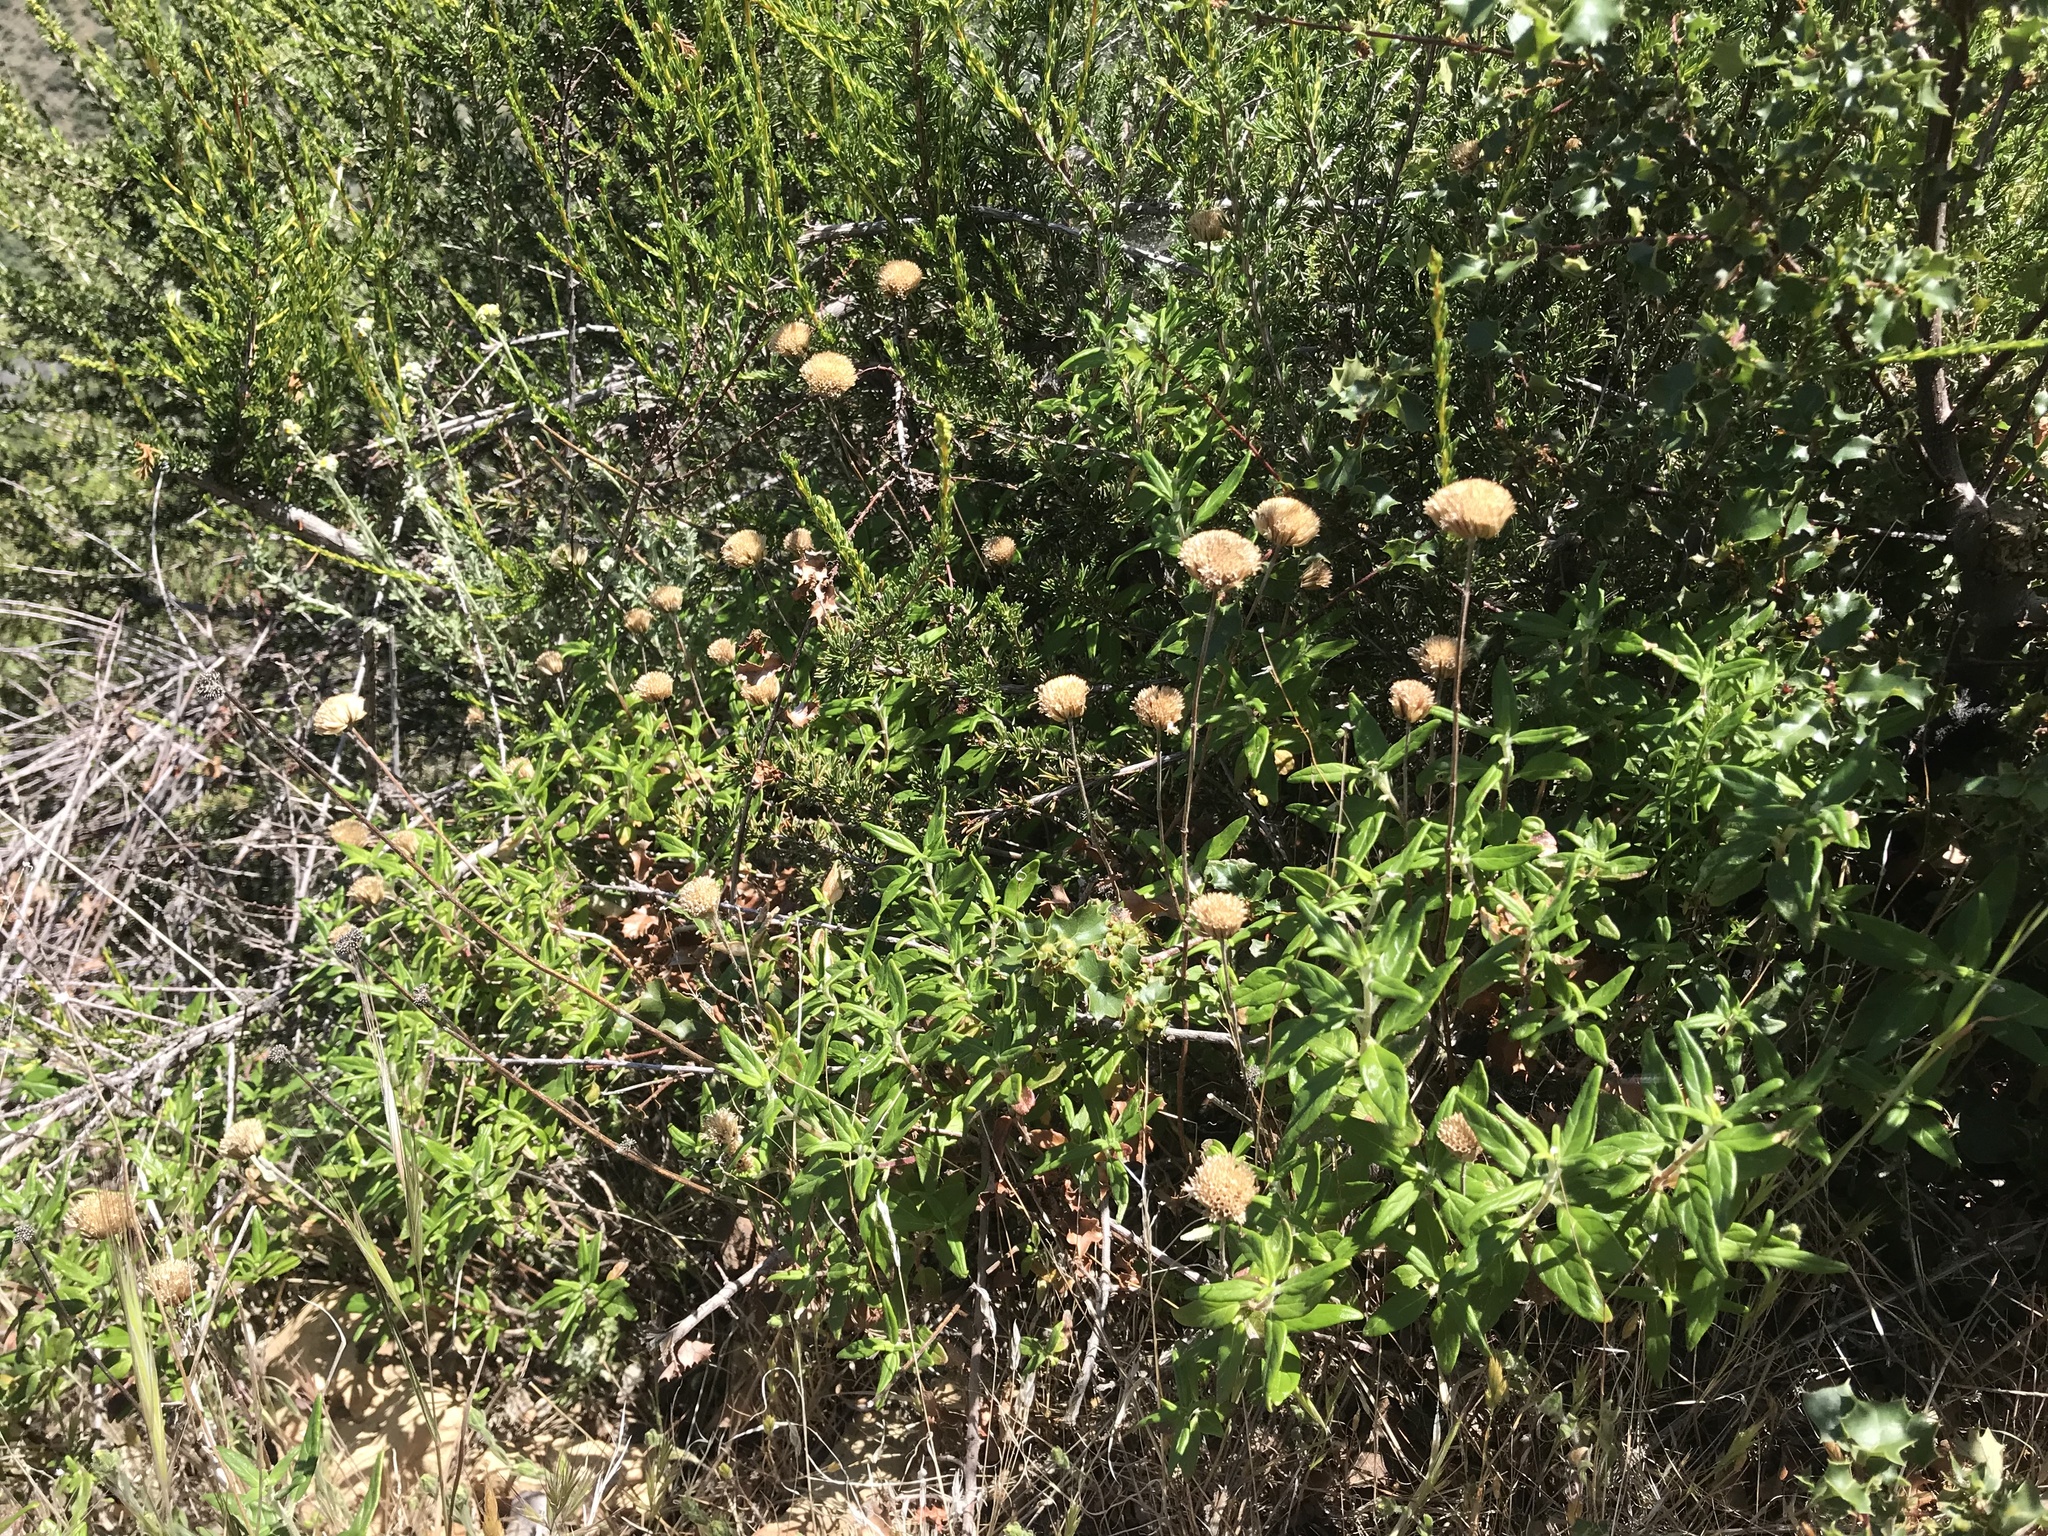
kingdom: Plantae
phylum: Tracheophyta
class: Magnoliopsida
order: Lamiales
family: Lamiaceae
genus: Monardella
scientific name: Monardella hypoleuca
